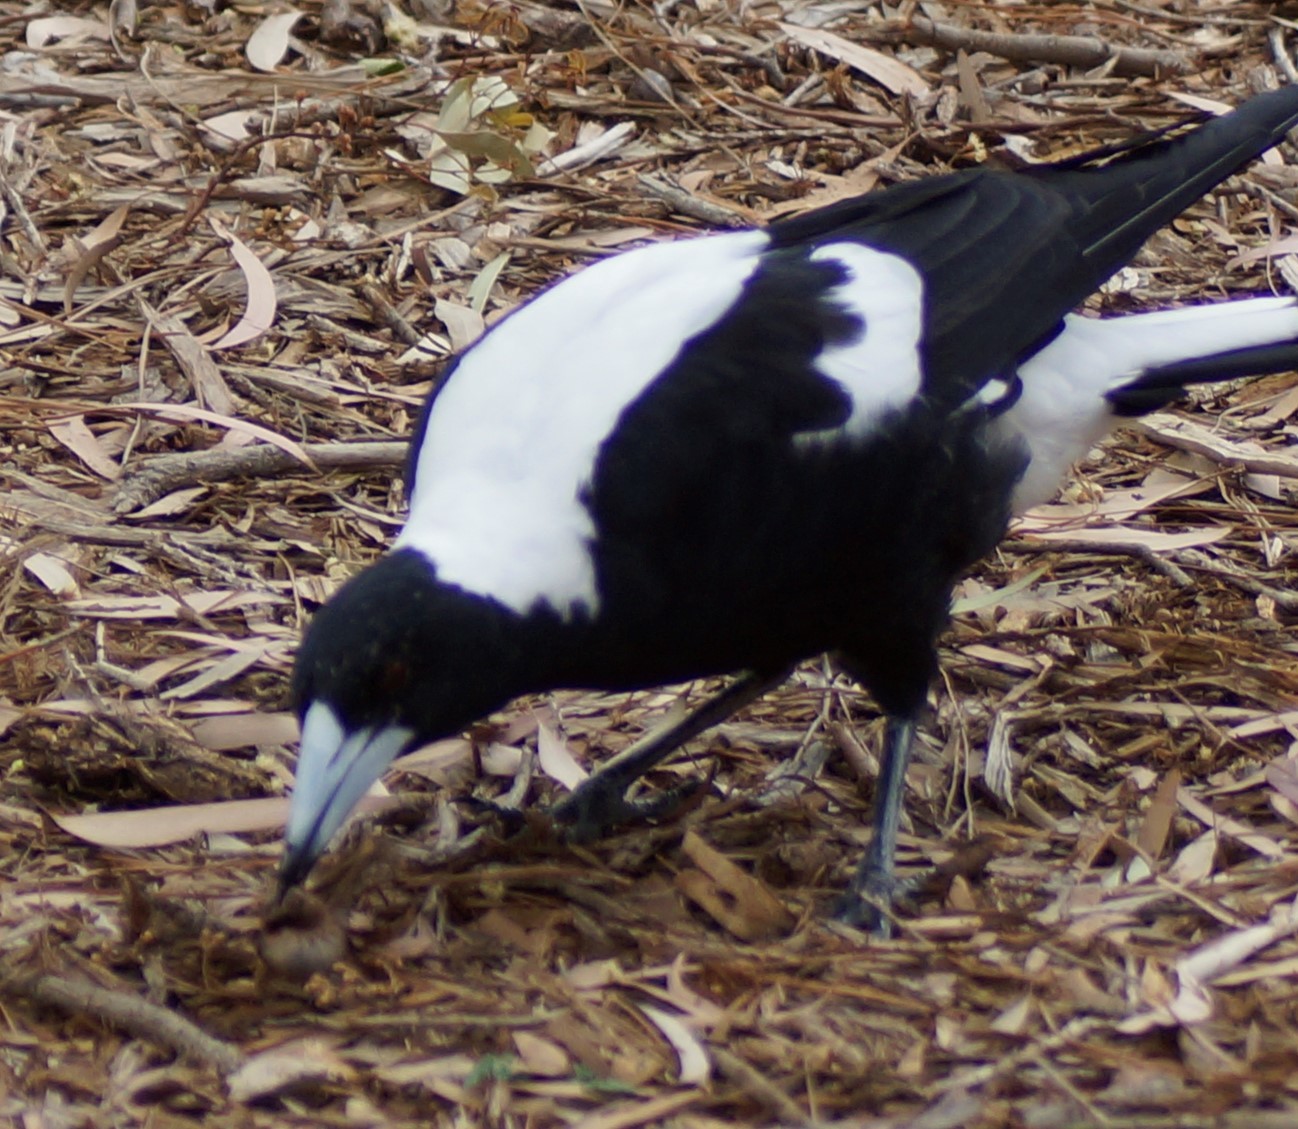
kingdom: Animalia
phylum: Chordata
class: Aves
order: Passeriformes
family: Cracticidae
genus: Gymnorhina
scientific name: Gymnorhina tibicen
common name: Australian magpie
